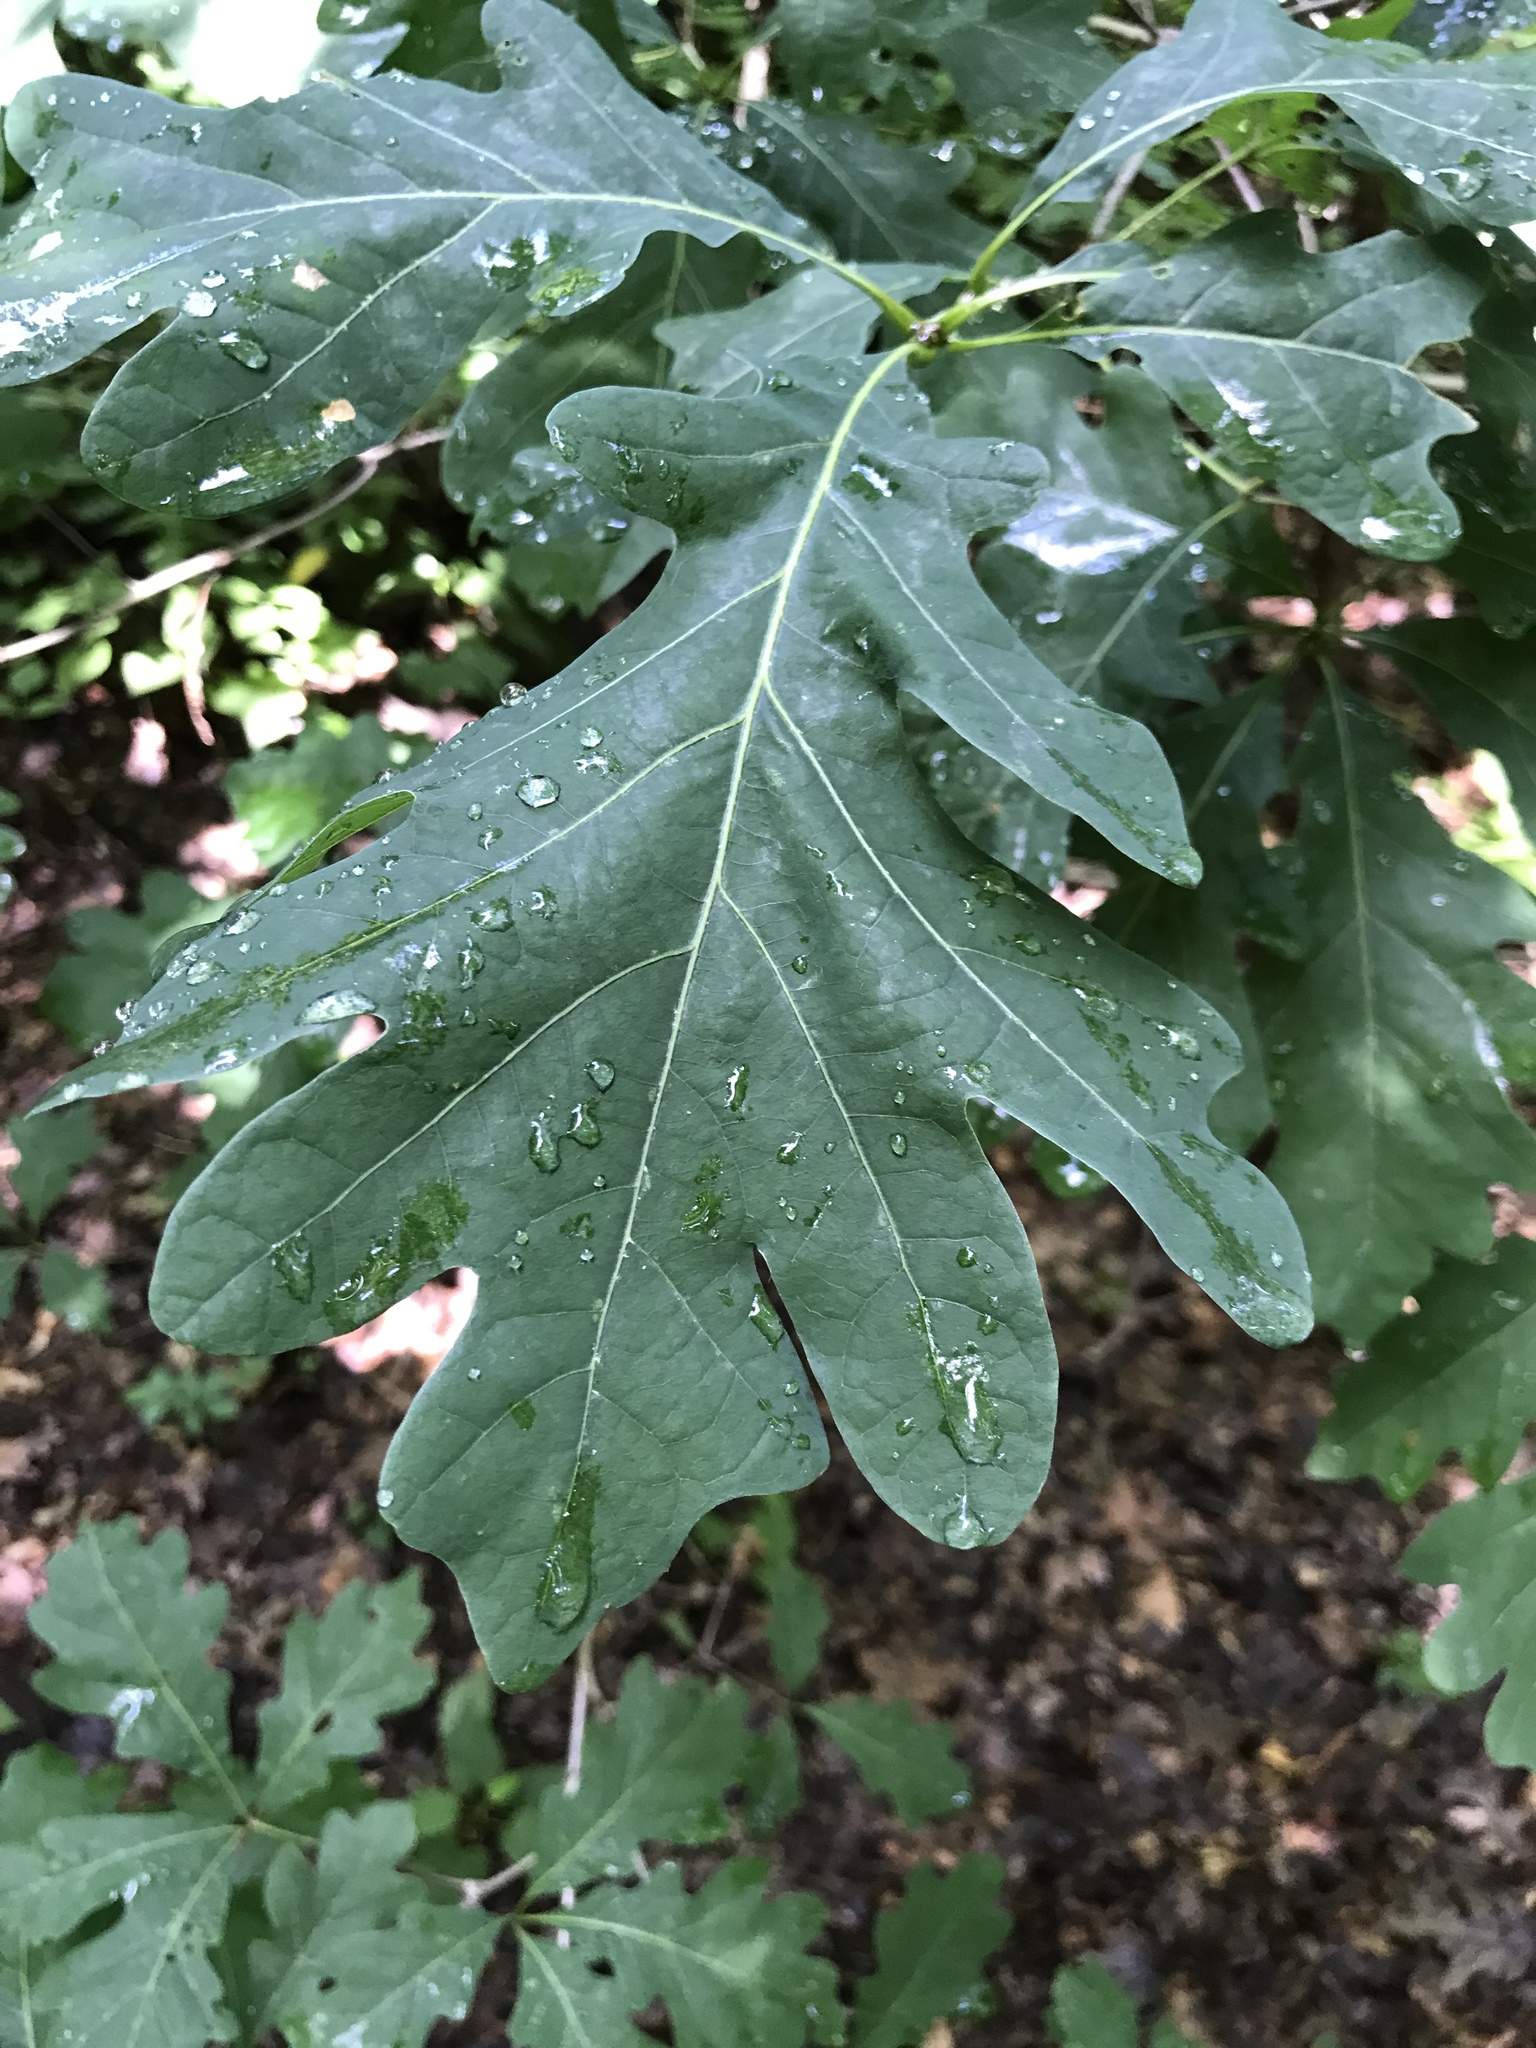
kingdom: Plantae
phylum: Tracheophyta
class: Magnoliopsida
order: Fagales
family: Fagaceae
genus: Quercus
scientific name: Quercus alba
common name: White oak
